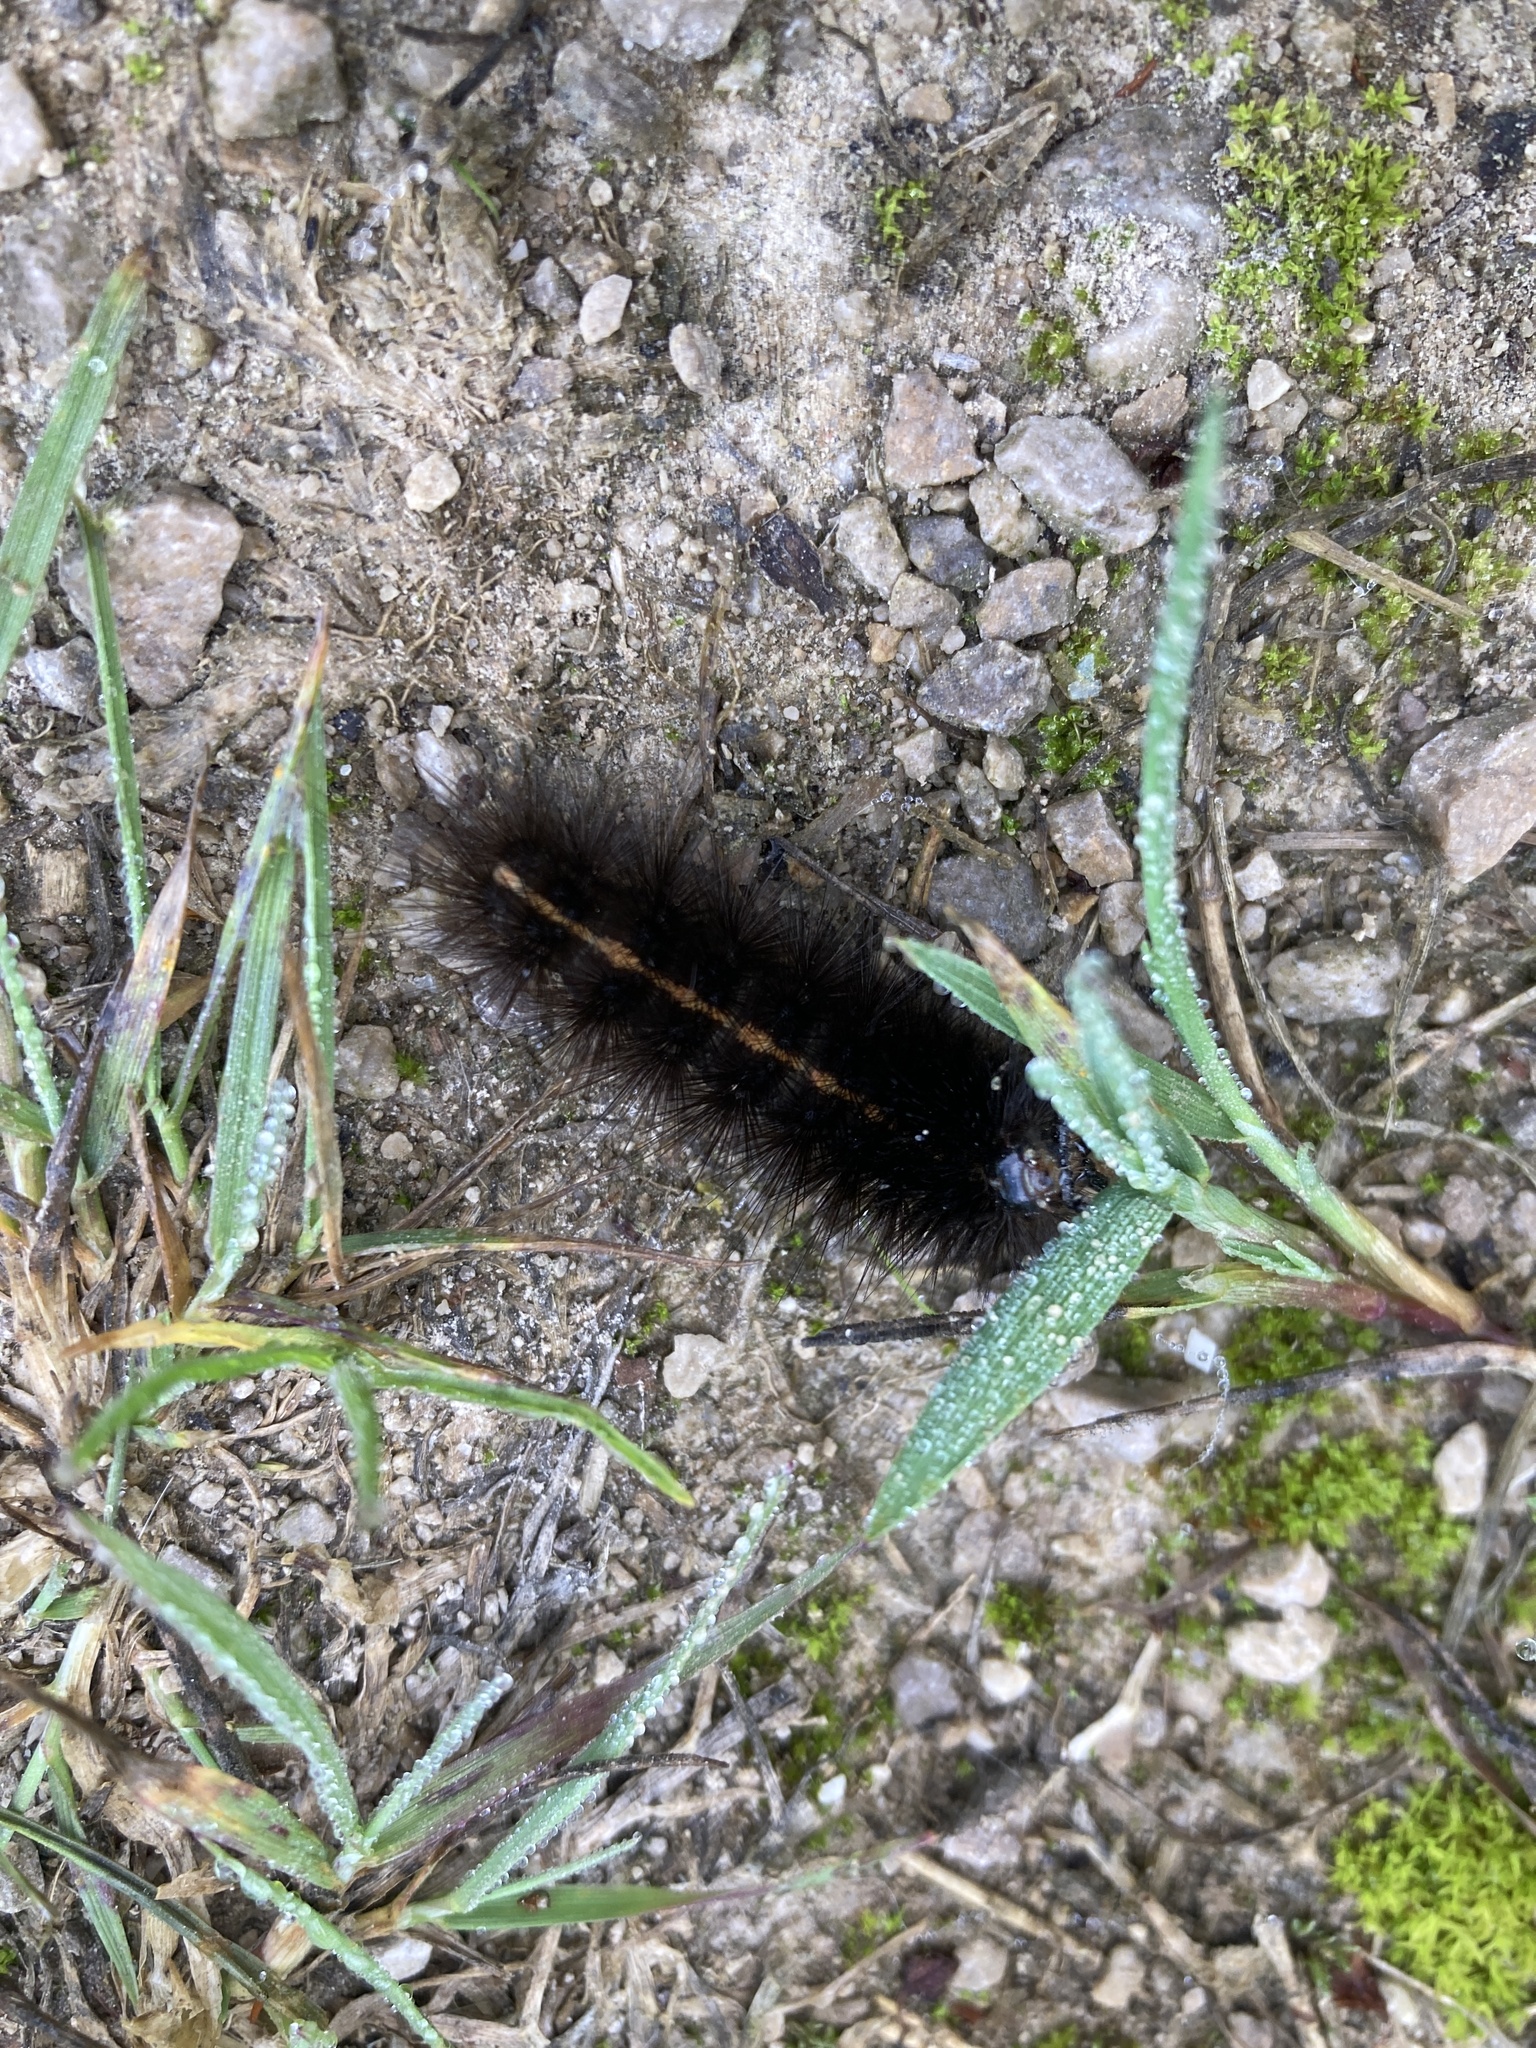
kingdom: Animalia
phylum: Arthropoda
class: Insecta
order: Lepidoptera
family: Erebidae
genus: Spilosoma
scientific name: Spilosoma lubricipeda
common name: White ermine
